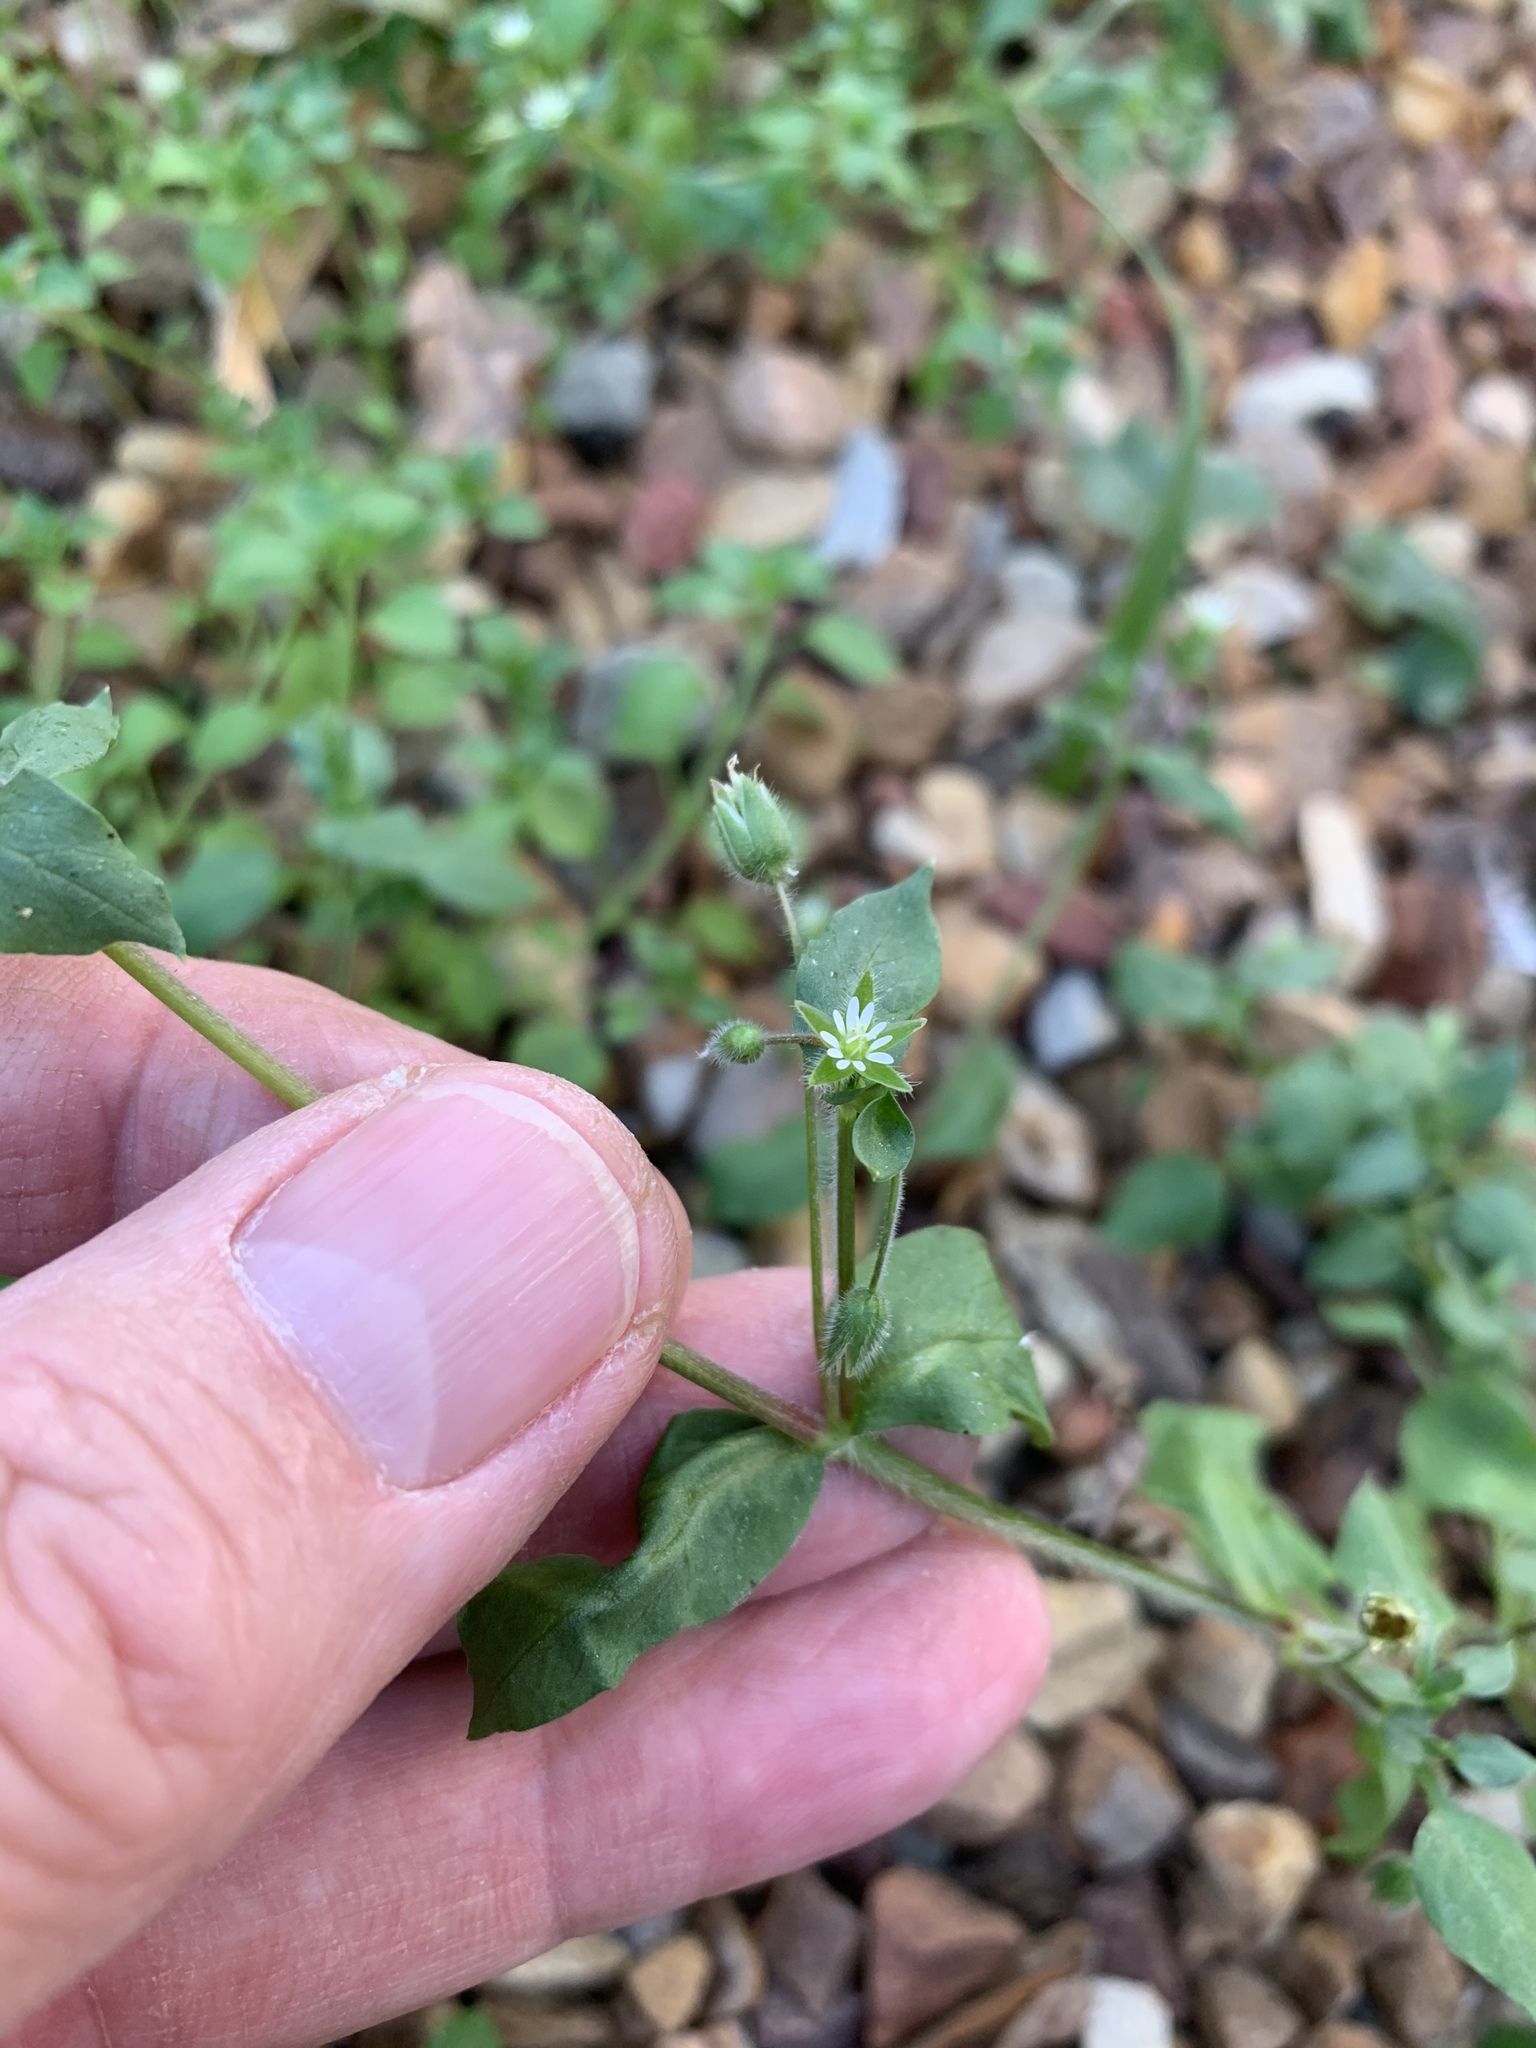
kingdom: Plantae
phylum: Tracheophyta
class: Magnoliopsida
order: Caryophyllales
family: Caryophyllaceae
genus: Stellaria
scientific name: Stellaria media
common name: Common chickweed
